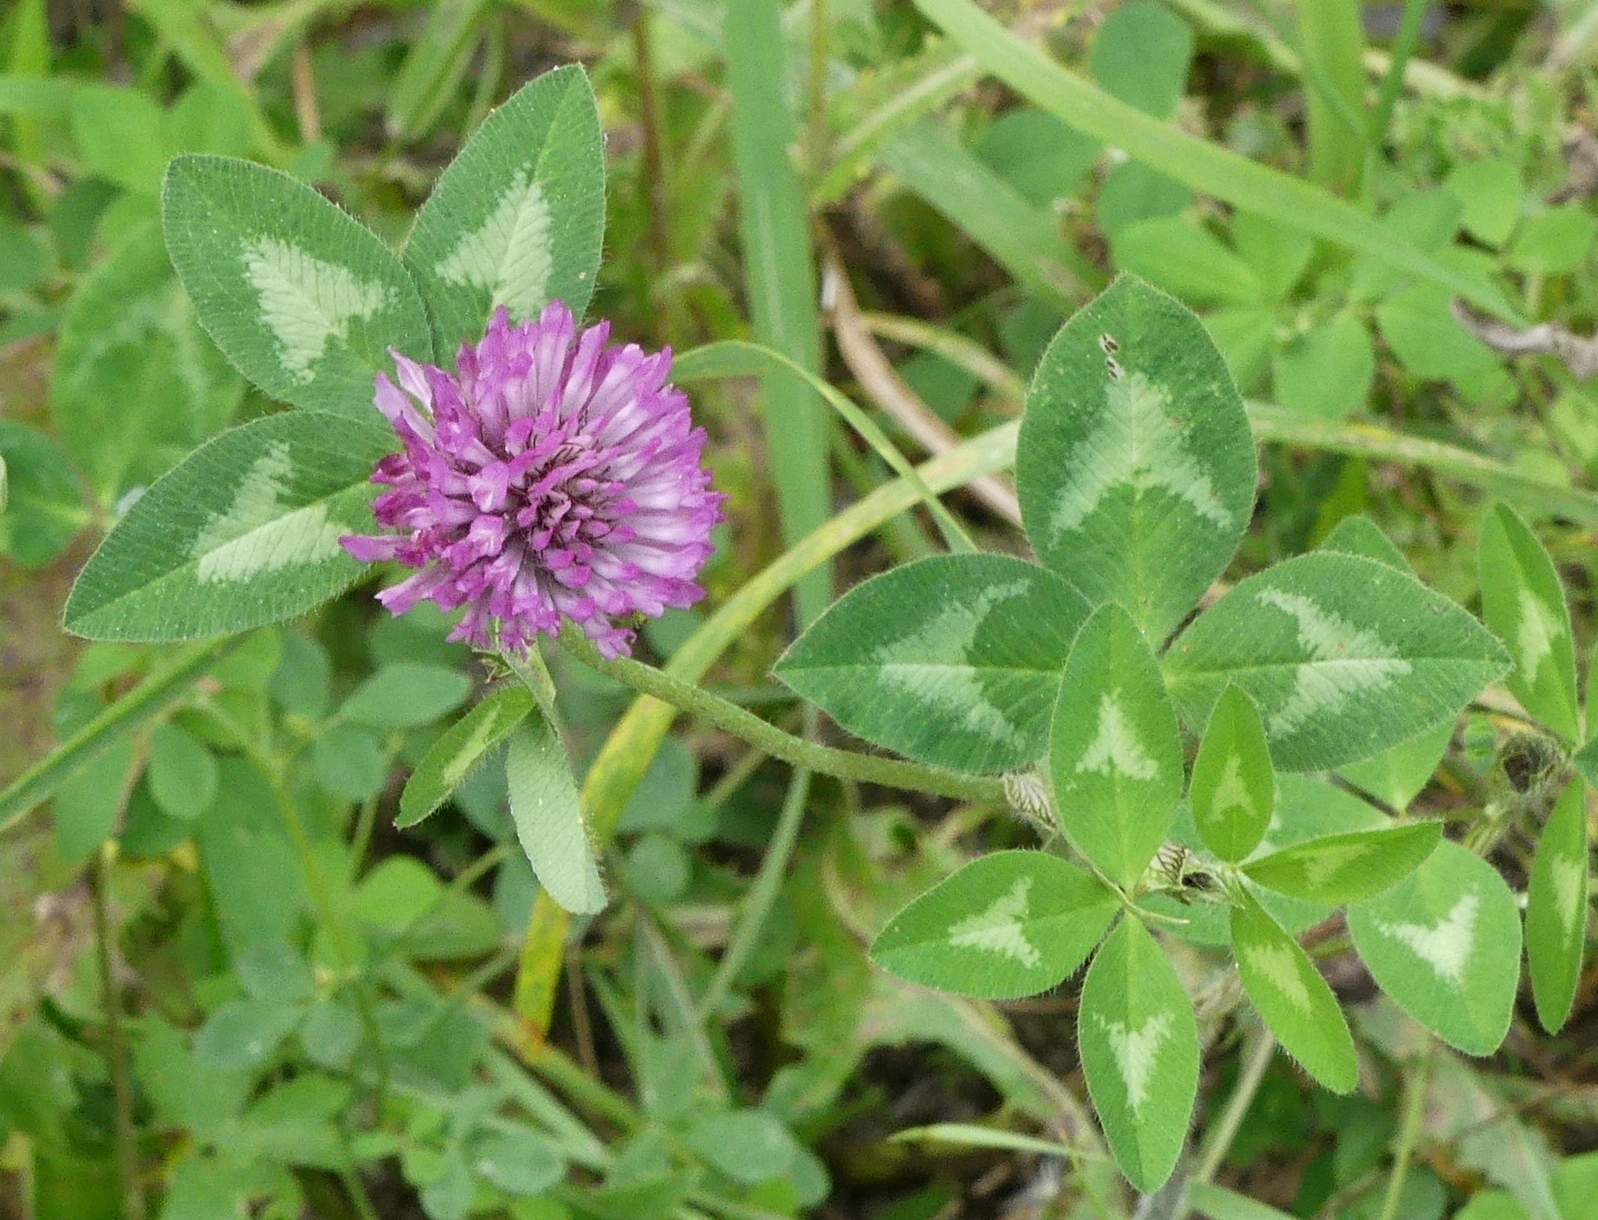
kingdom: Plantae
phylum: Tracheophyta
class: Magnoliopsida
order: Fabales
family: Fabaceae
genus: Trifolium
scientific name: Trifolium pratense
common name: Red clover
